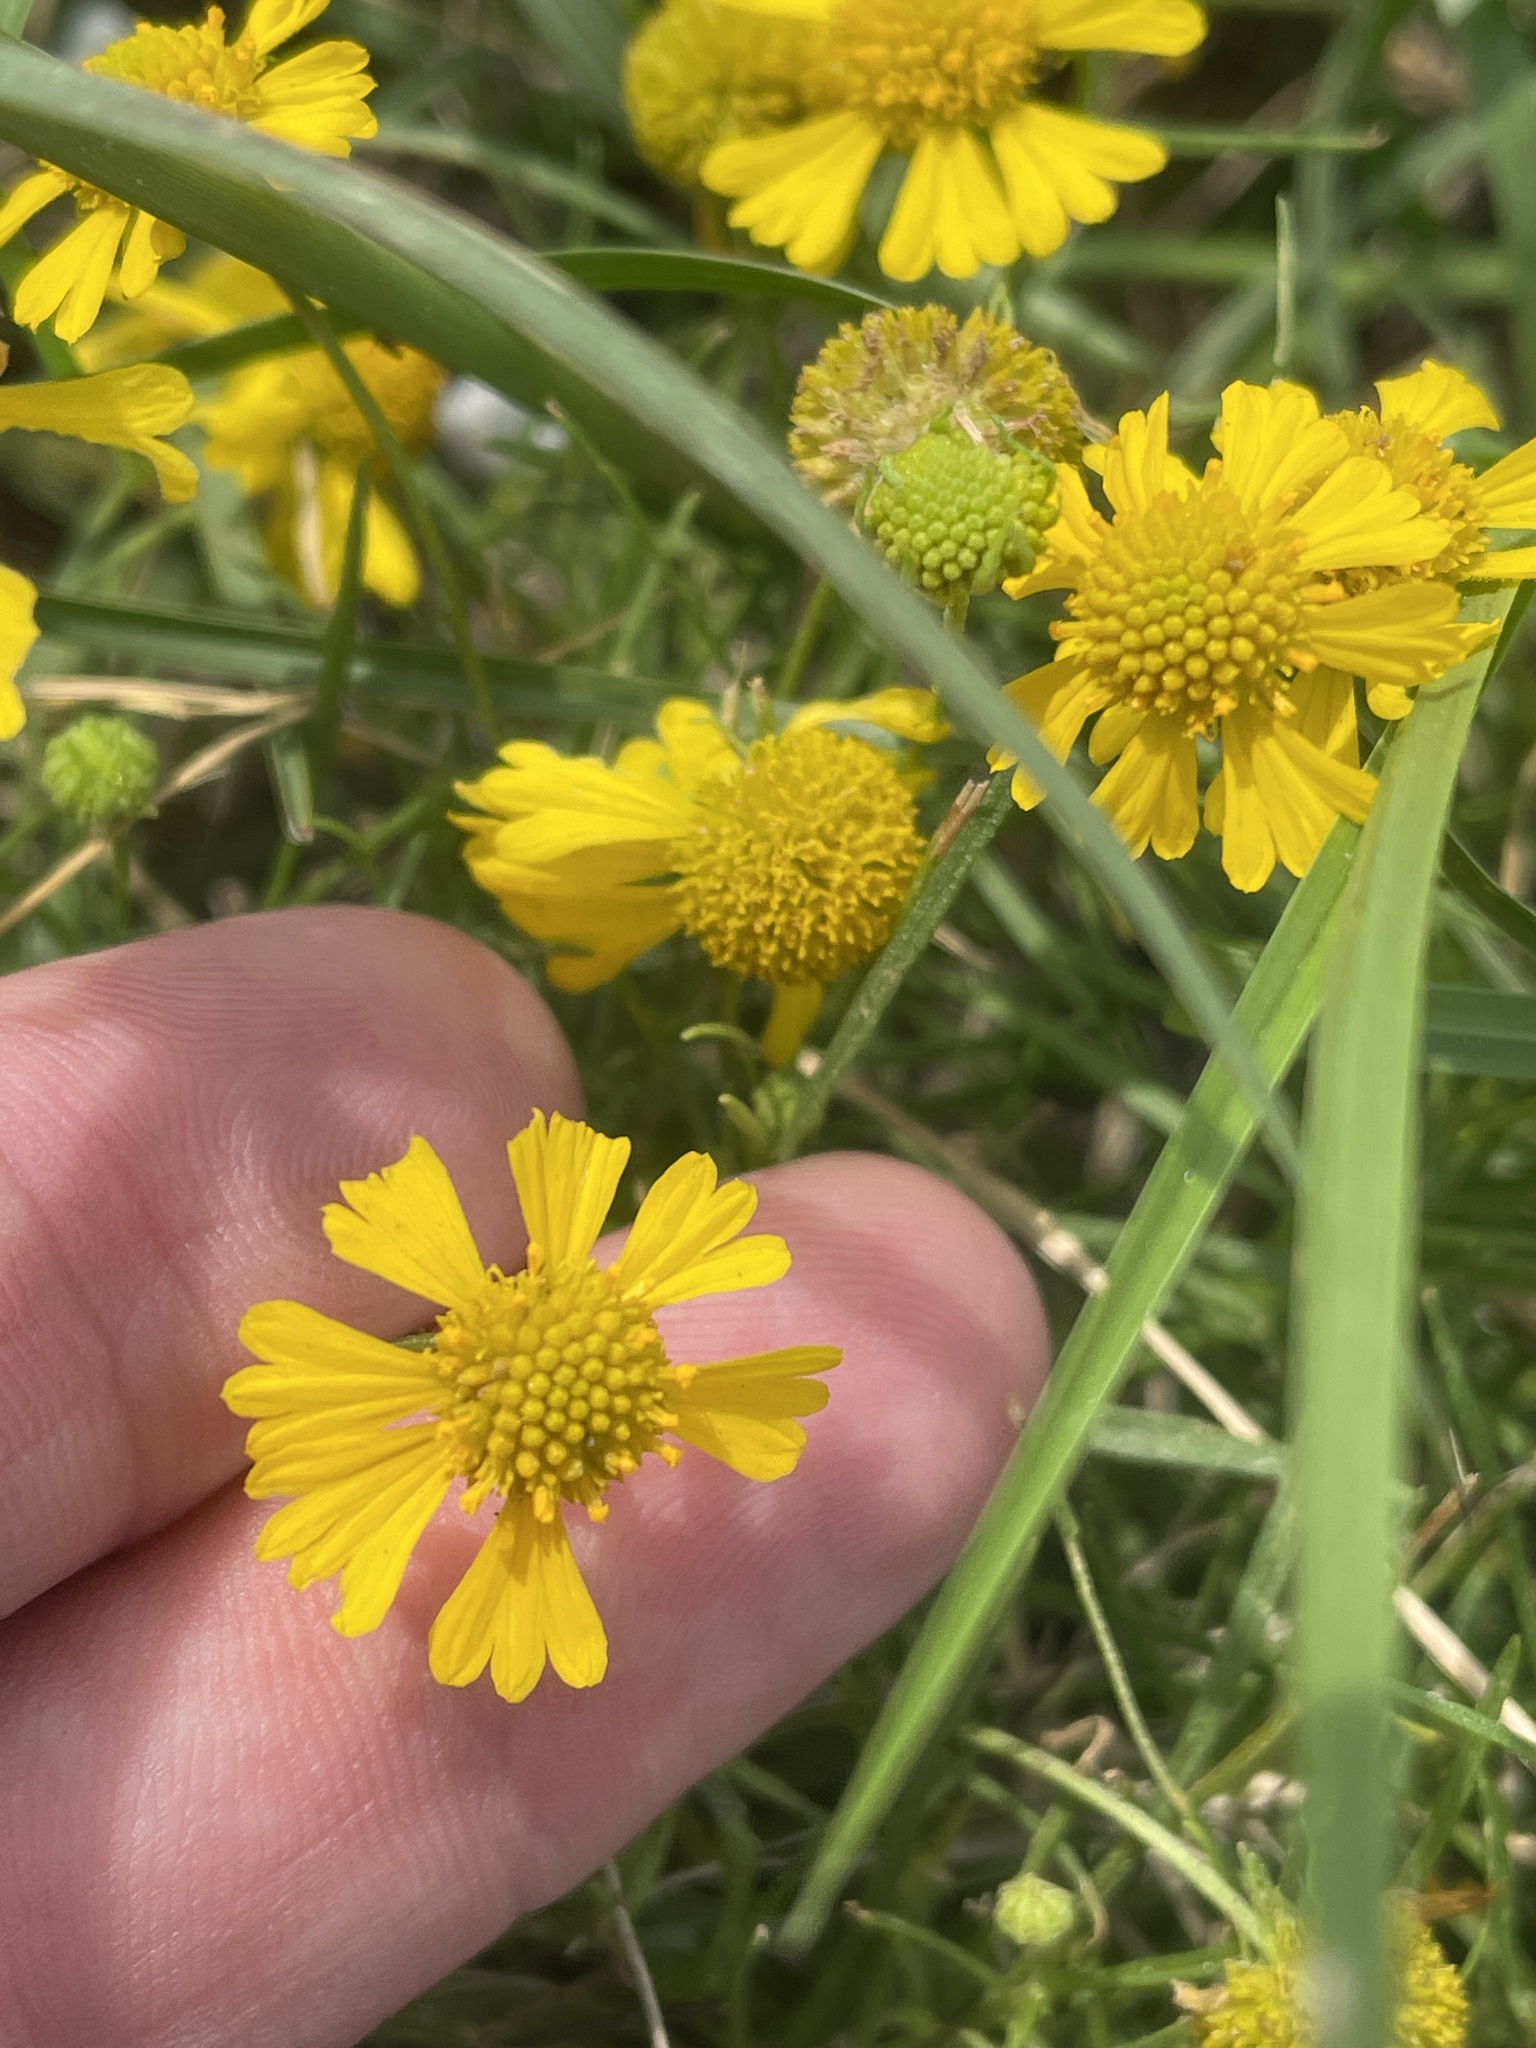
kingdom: Plantae
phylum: Tracheophyta
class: Magnoliopsida
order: Asterales
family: Asteraceae
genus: Helenium
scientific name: Helenium amarum
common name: Bitter sneezeweed
